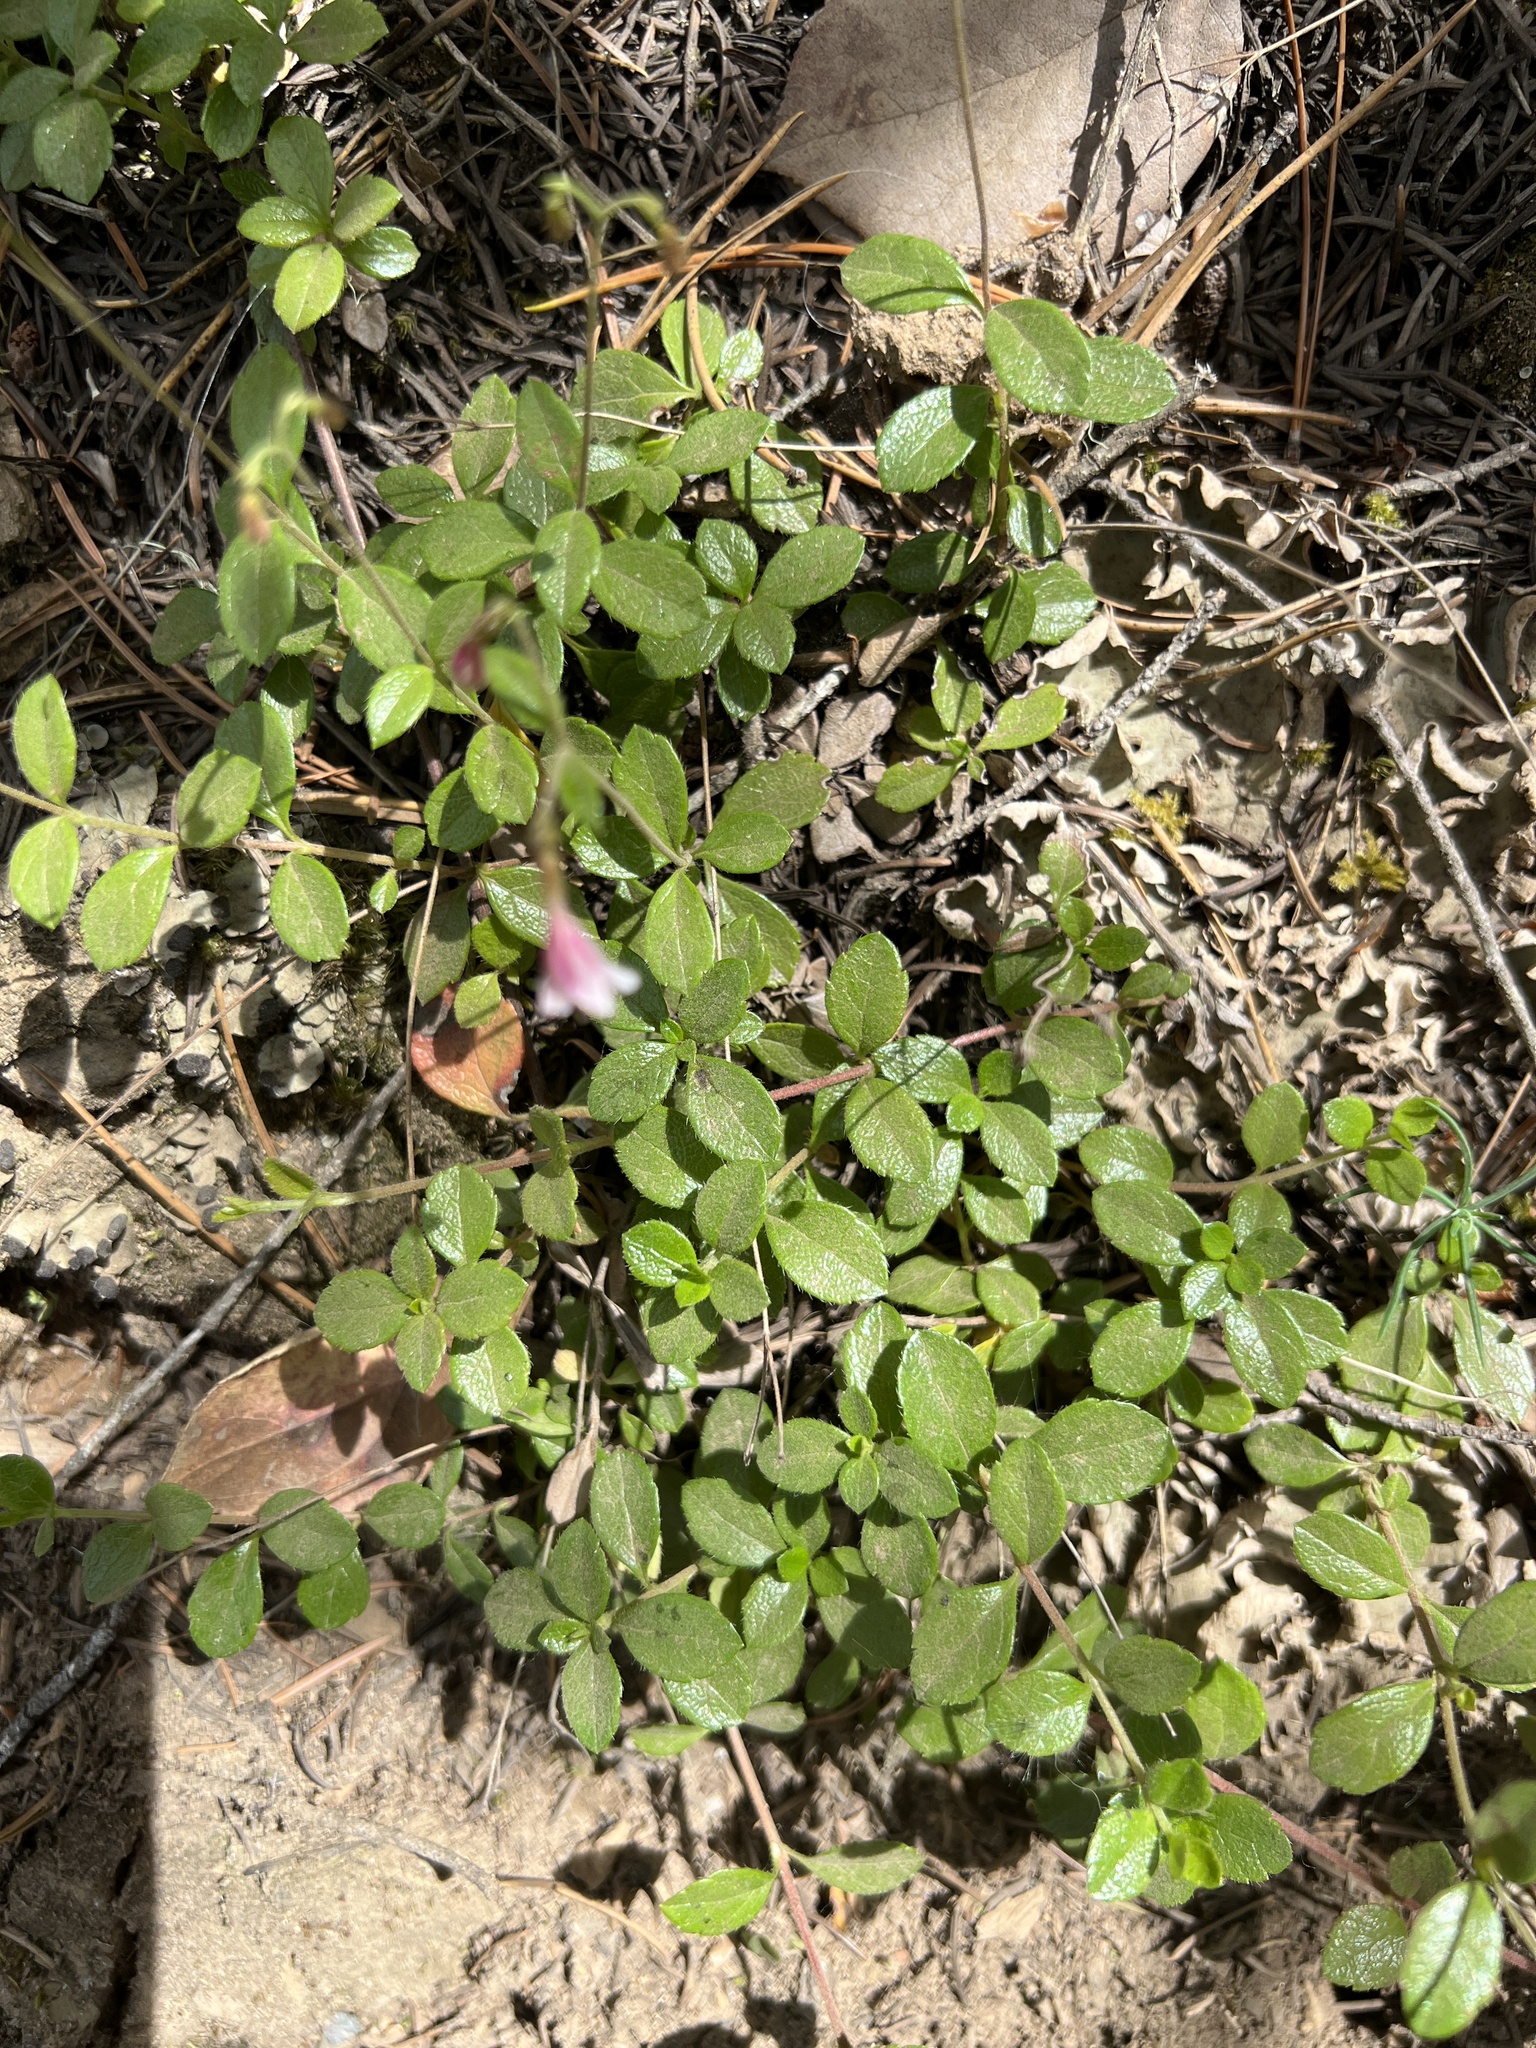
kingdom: Plantae
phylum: Tracheophyta
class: Magnoliopsida
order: Dipsacales
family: Caprifoliaceae
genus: Linnaea
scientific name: Linnaea borealis
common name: Twinflower
